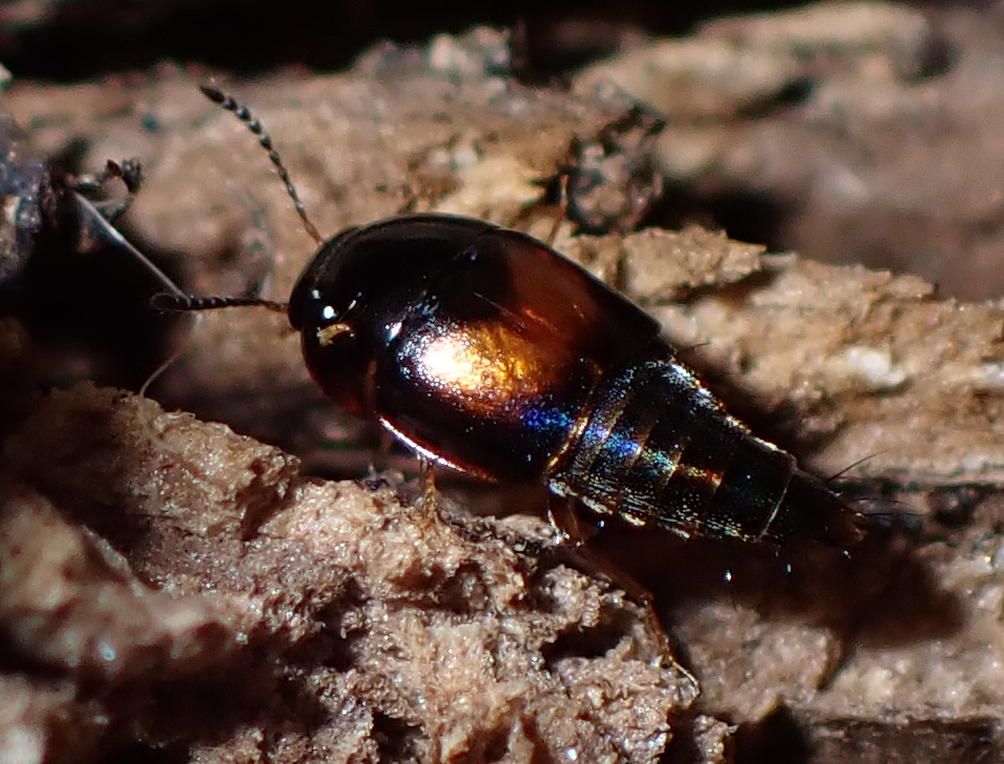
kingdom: Animalia
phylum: Arthropoda
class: Insecta
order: Coleoptera
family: Staphylinidae
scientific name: Staphylinidae
